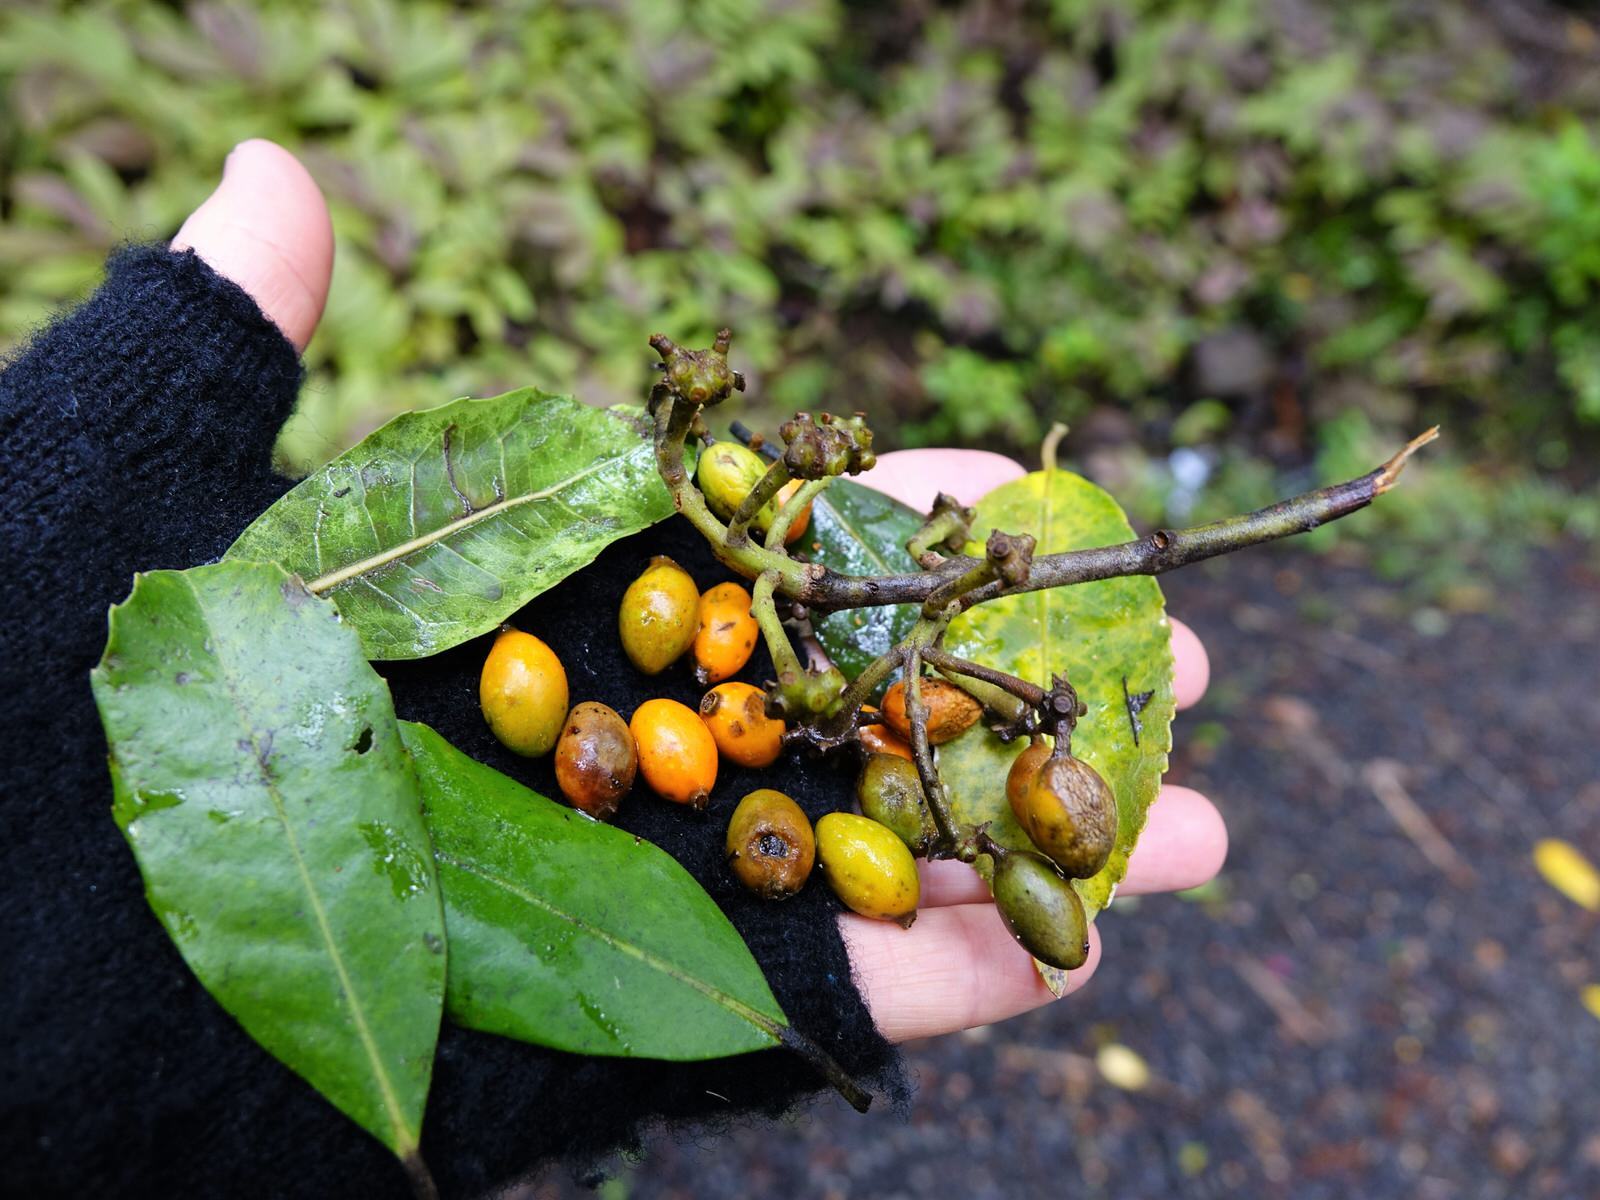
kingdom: Plantae
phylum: Tracheophyta
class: Magnoliopsida
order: Laurales
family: Monimiaceae
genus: Hedycarya
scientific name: Hedycarya arborea
